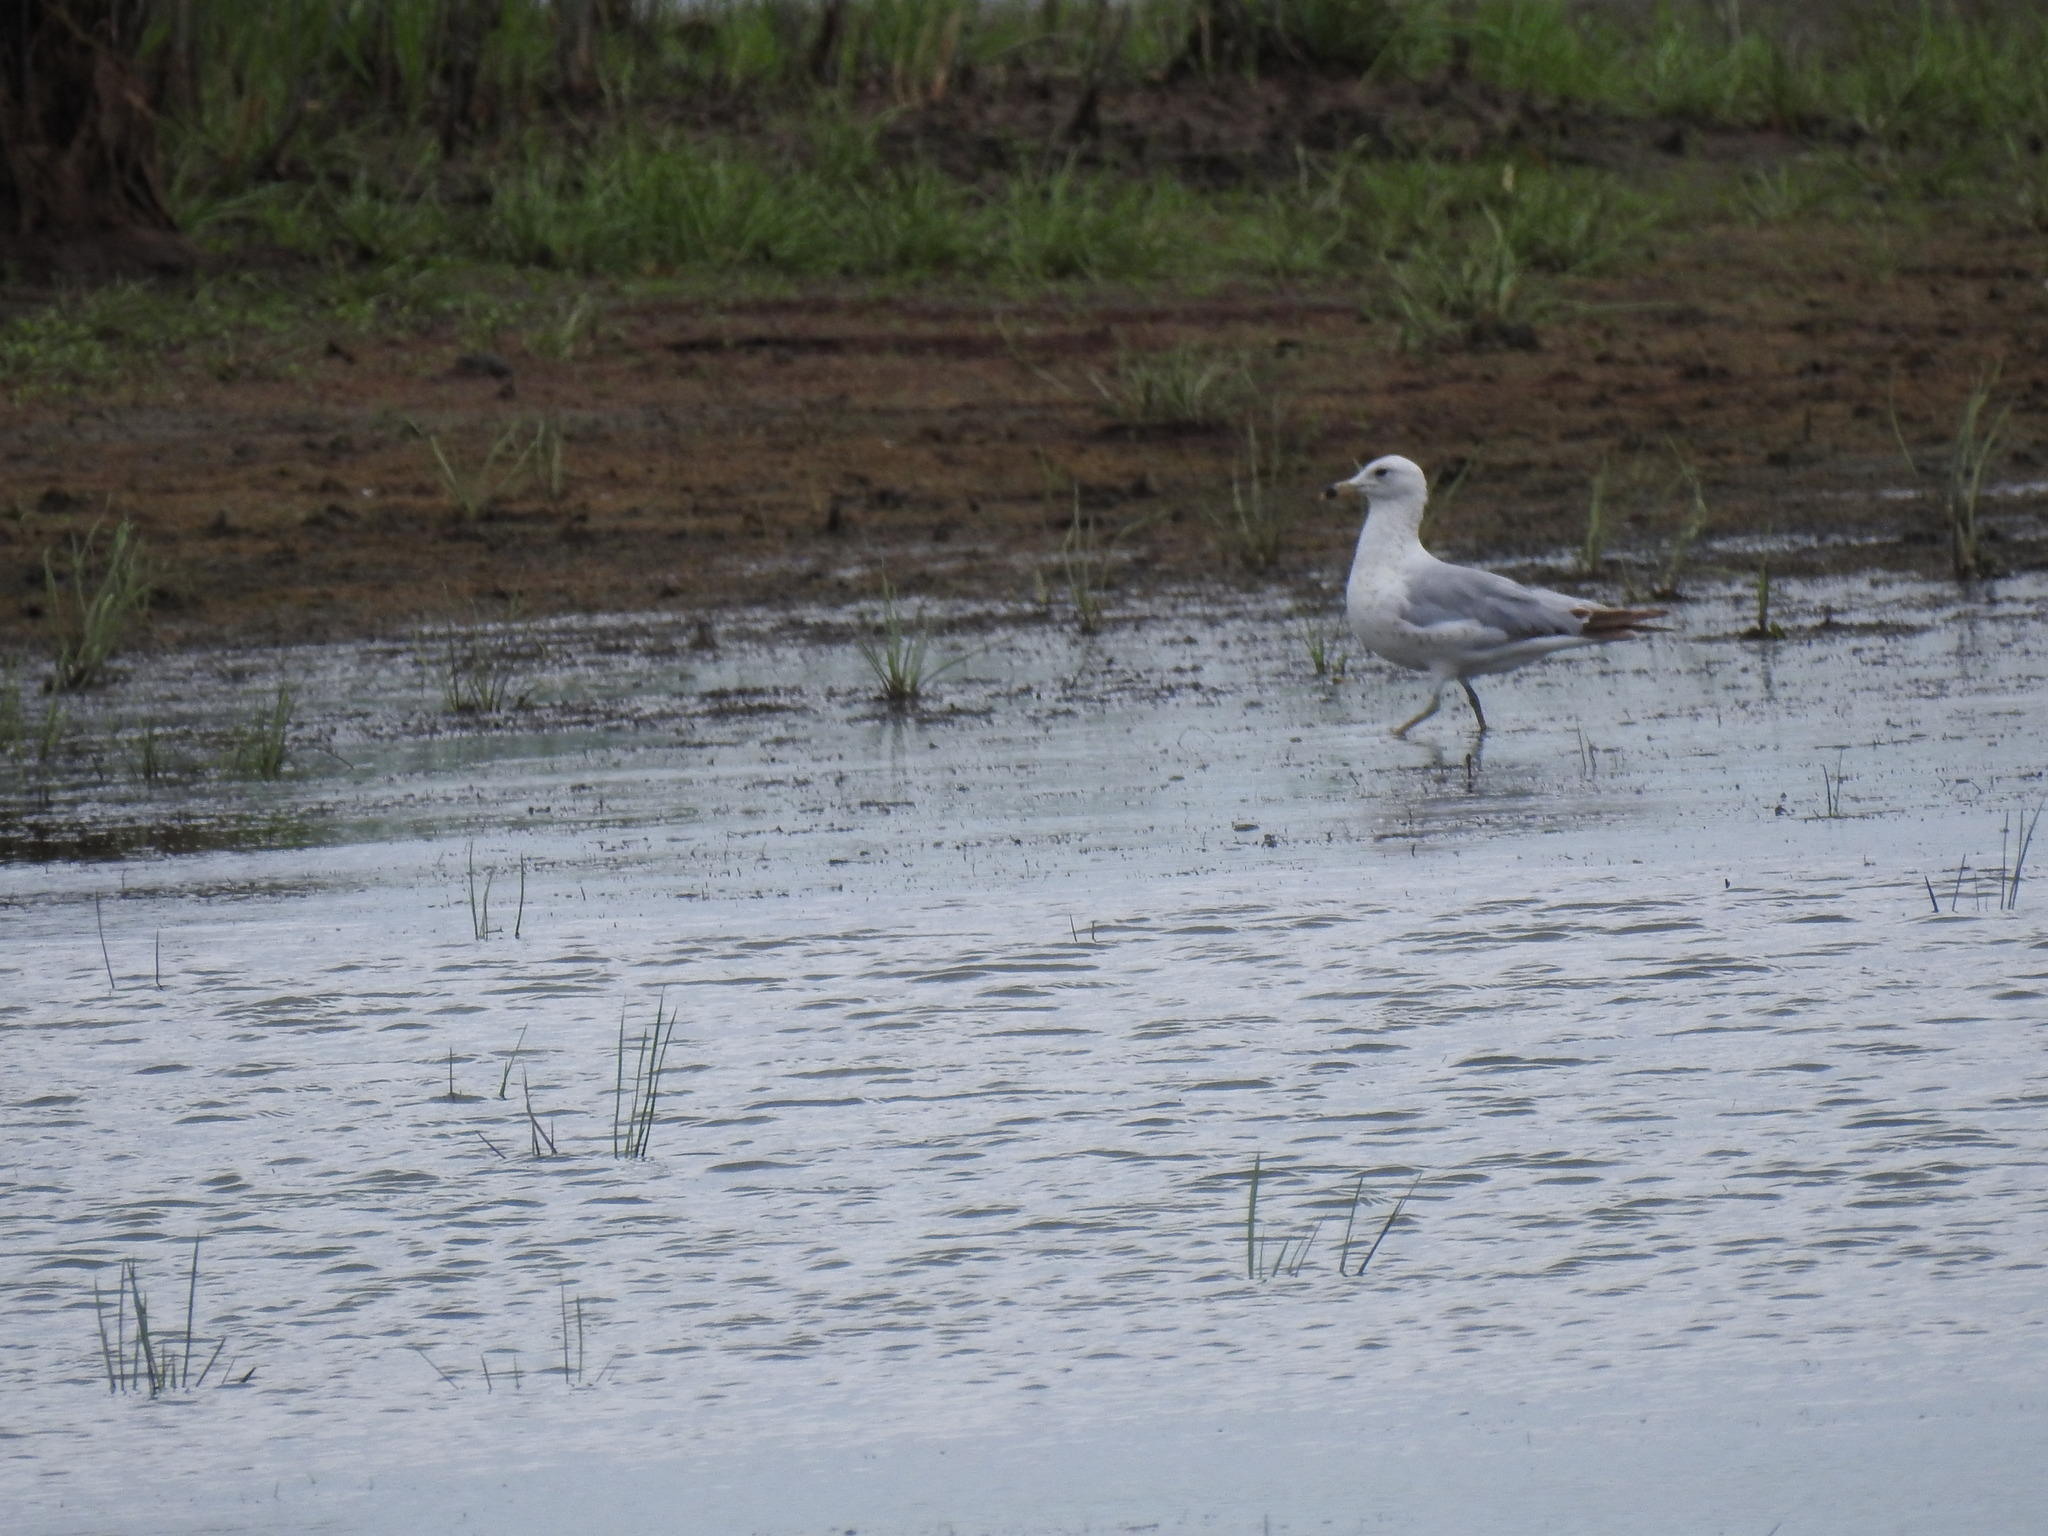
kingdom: Animalia
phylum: Chordata
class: Aves
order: Charadriiformes
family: Laridae
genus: Larus
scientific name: Larus delawarensis
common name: Ring-billed gull
